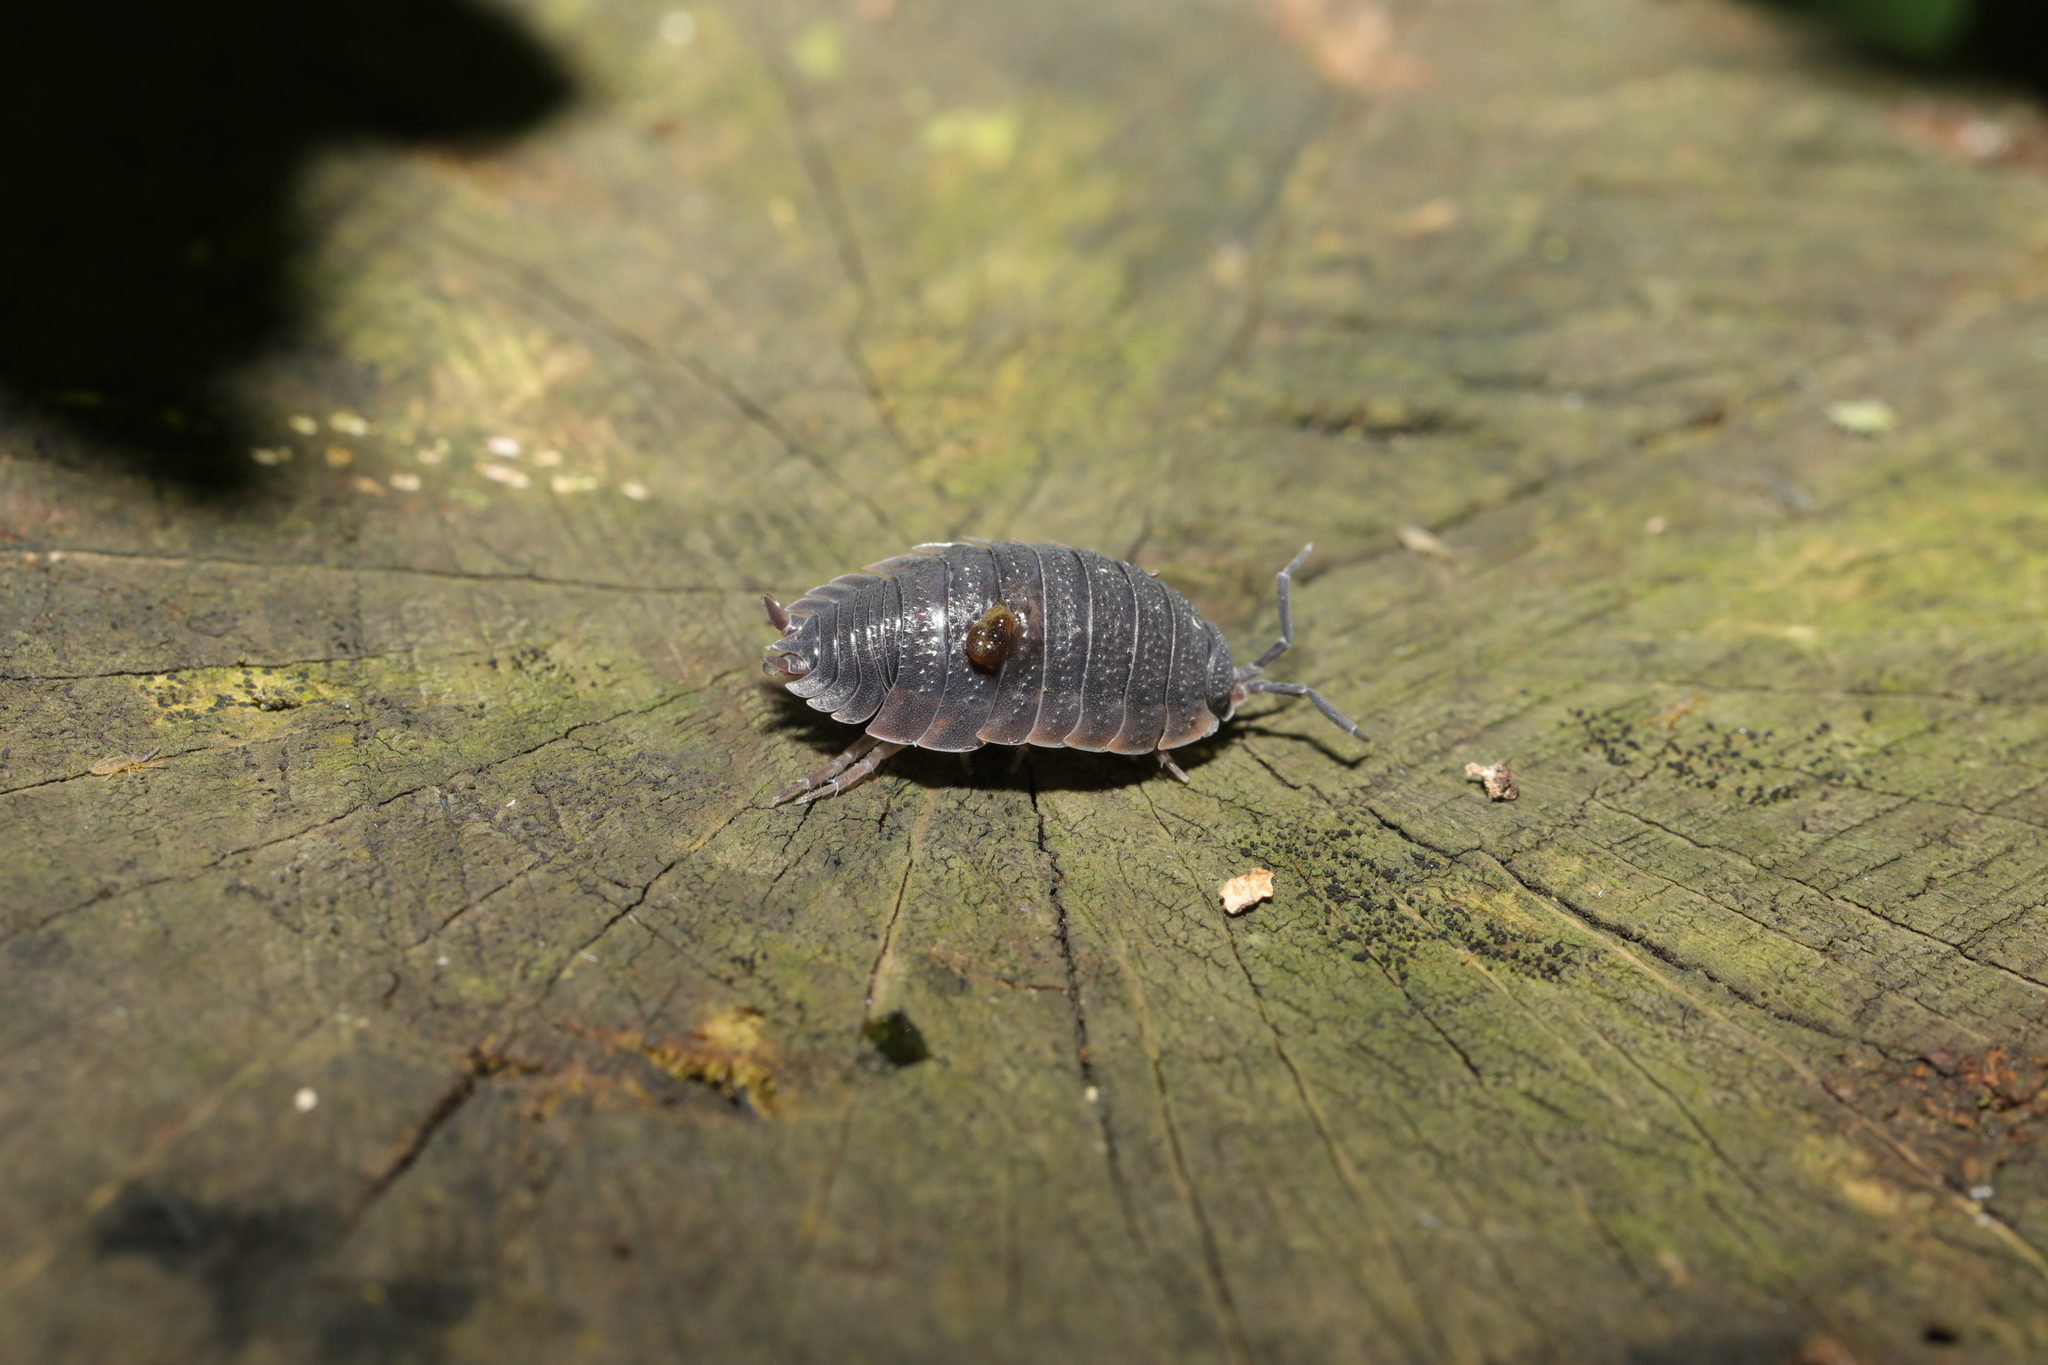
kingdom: Animalia
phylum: Arthropoda
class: Malacostraca
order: Isopoda
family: Porcellionidae
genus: Porcellio
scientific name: Porcellio scaber
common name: Common rough woodlouse
